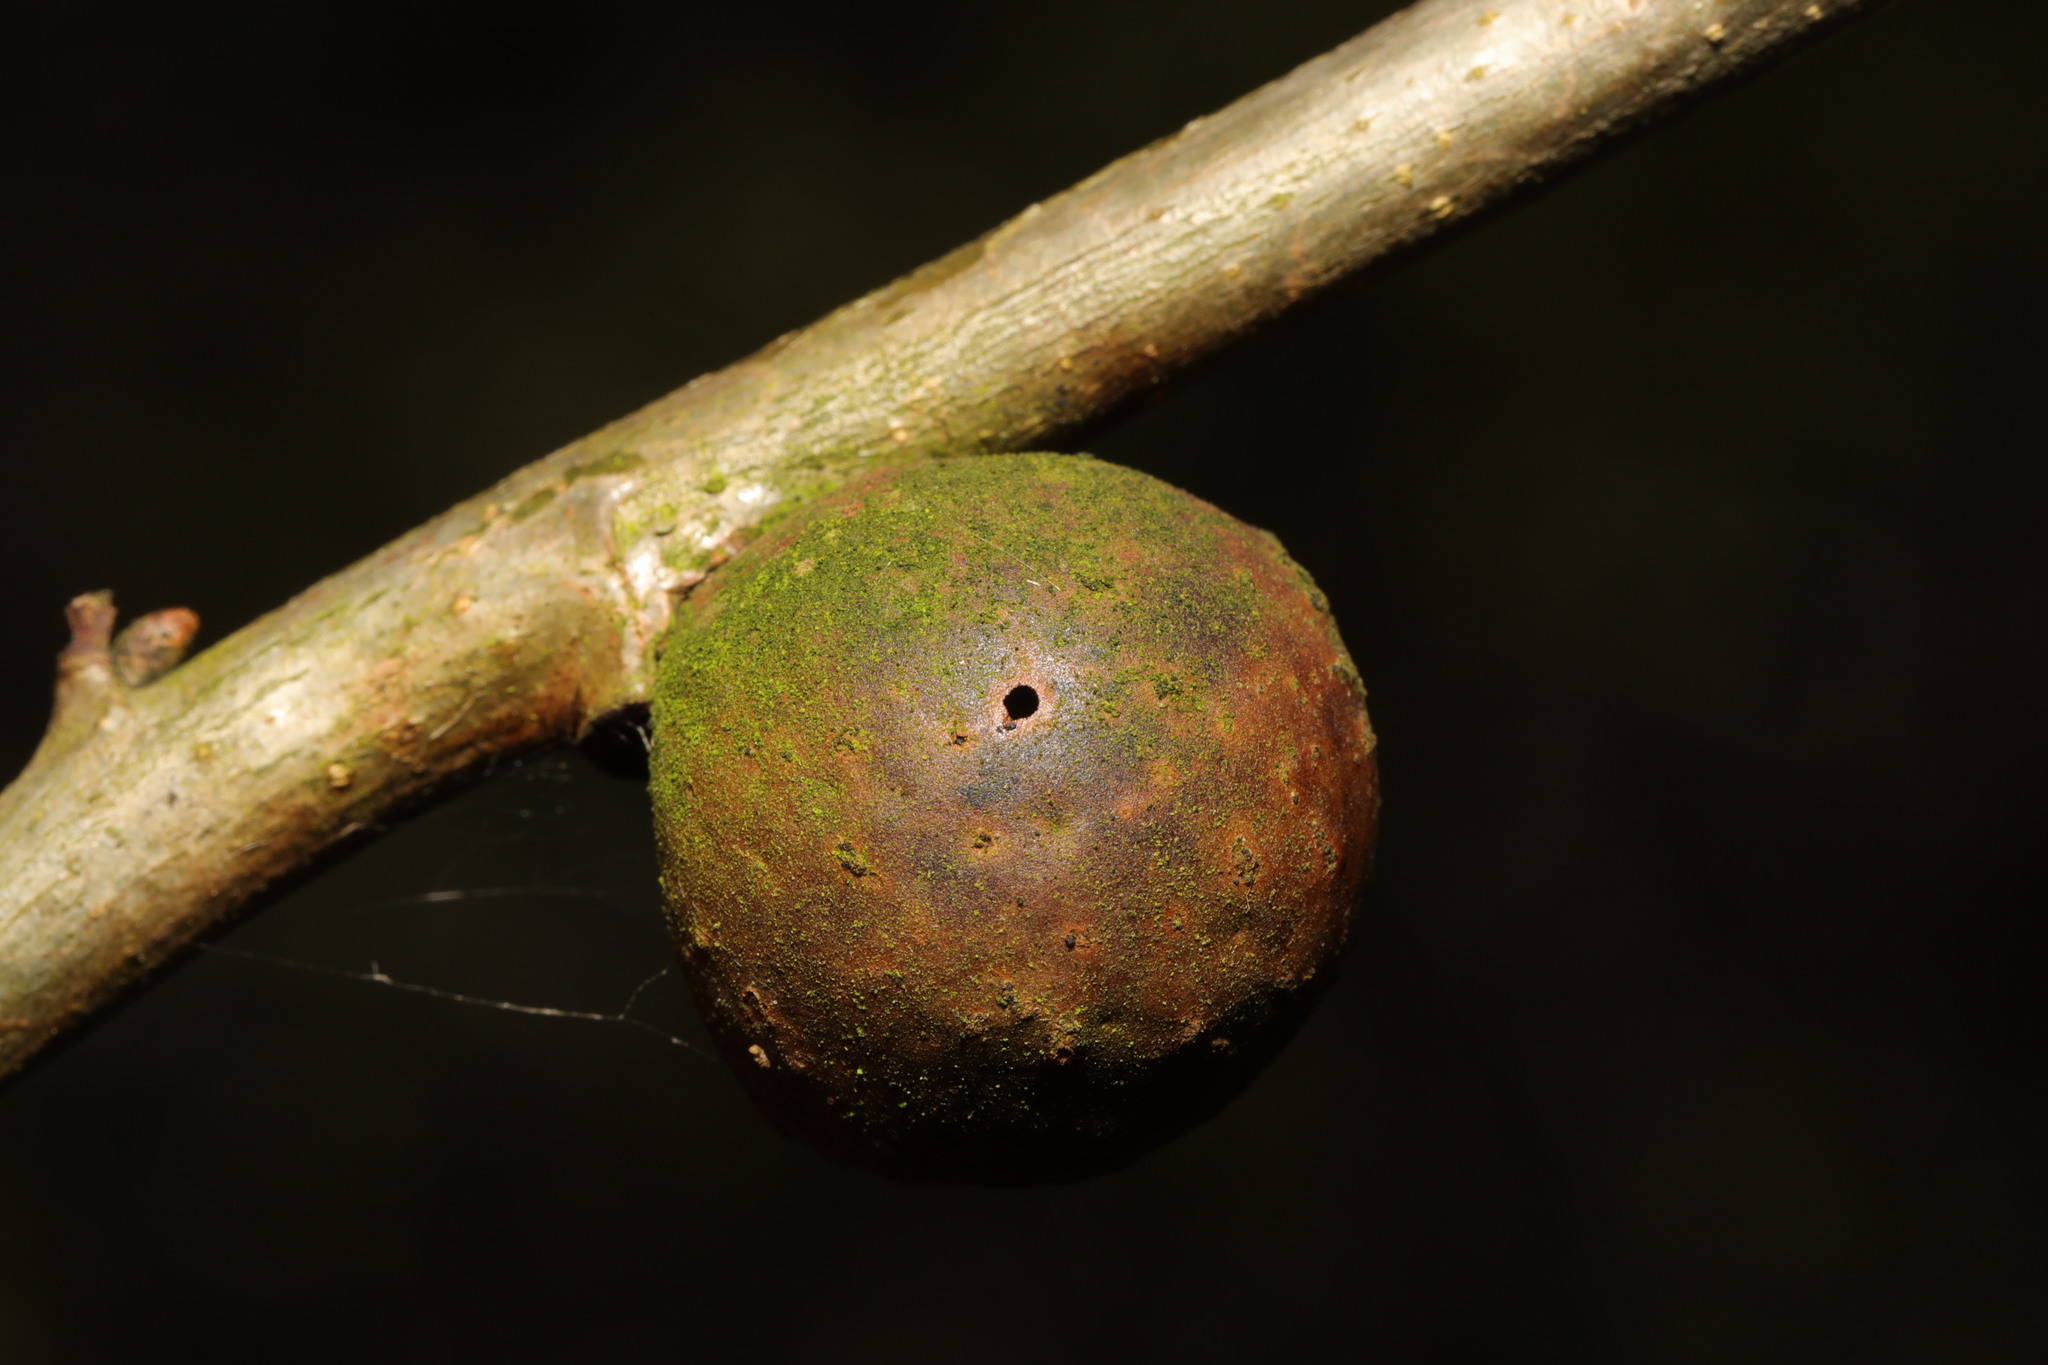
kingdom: Animalia
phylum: Arthropoda
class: Insecta
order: Hymenoptera
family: Cynipidae
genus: Andricus
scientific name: Andricus kollari
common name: Marble gall
